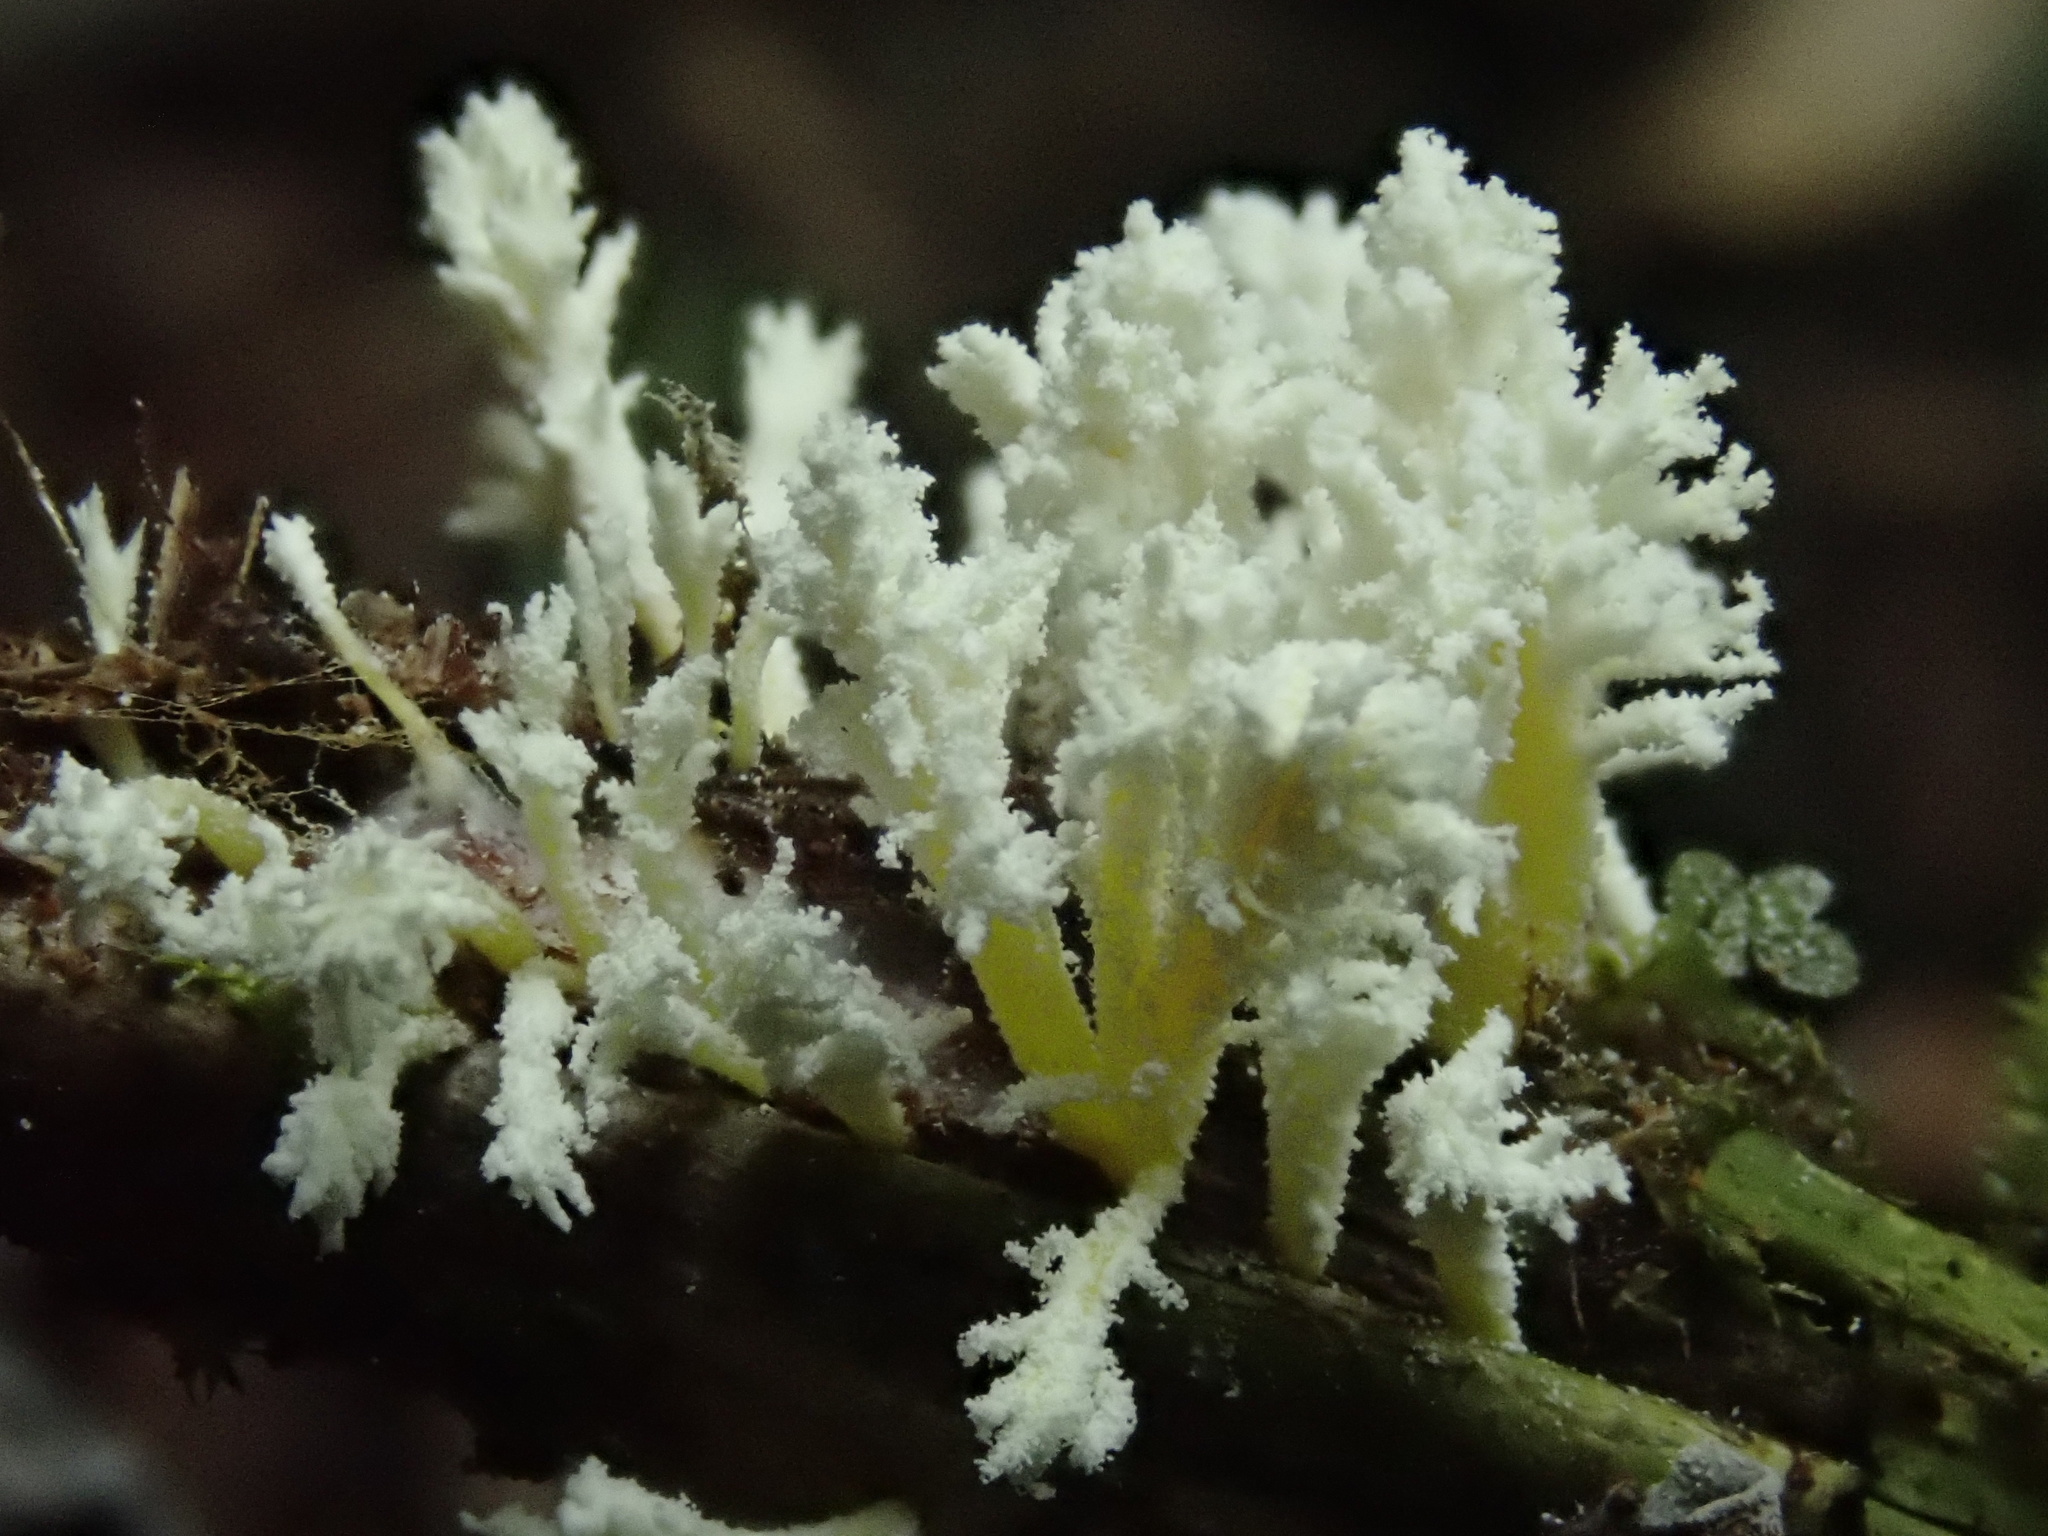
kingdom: Fungi
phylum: Ascomycota
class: Sordariomycetes
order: Hypocreales
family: Cordycipitaceae
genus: Cordyceps
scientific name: Cordyceps tenuipes
